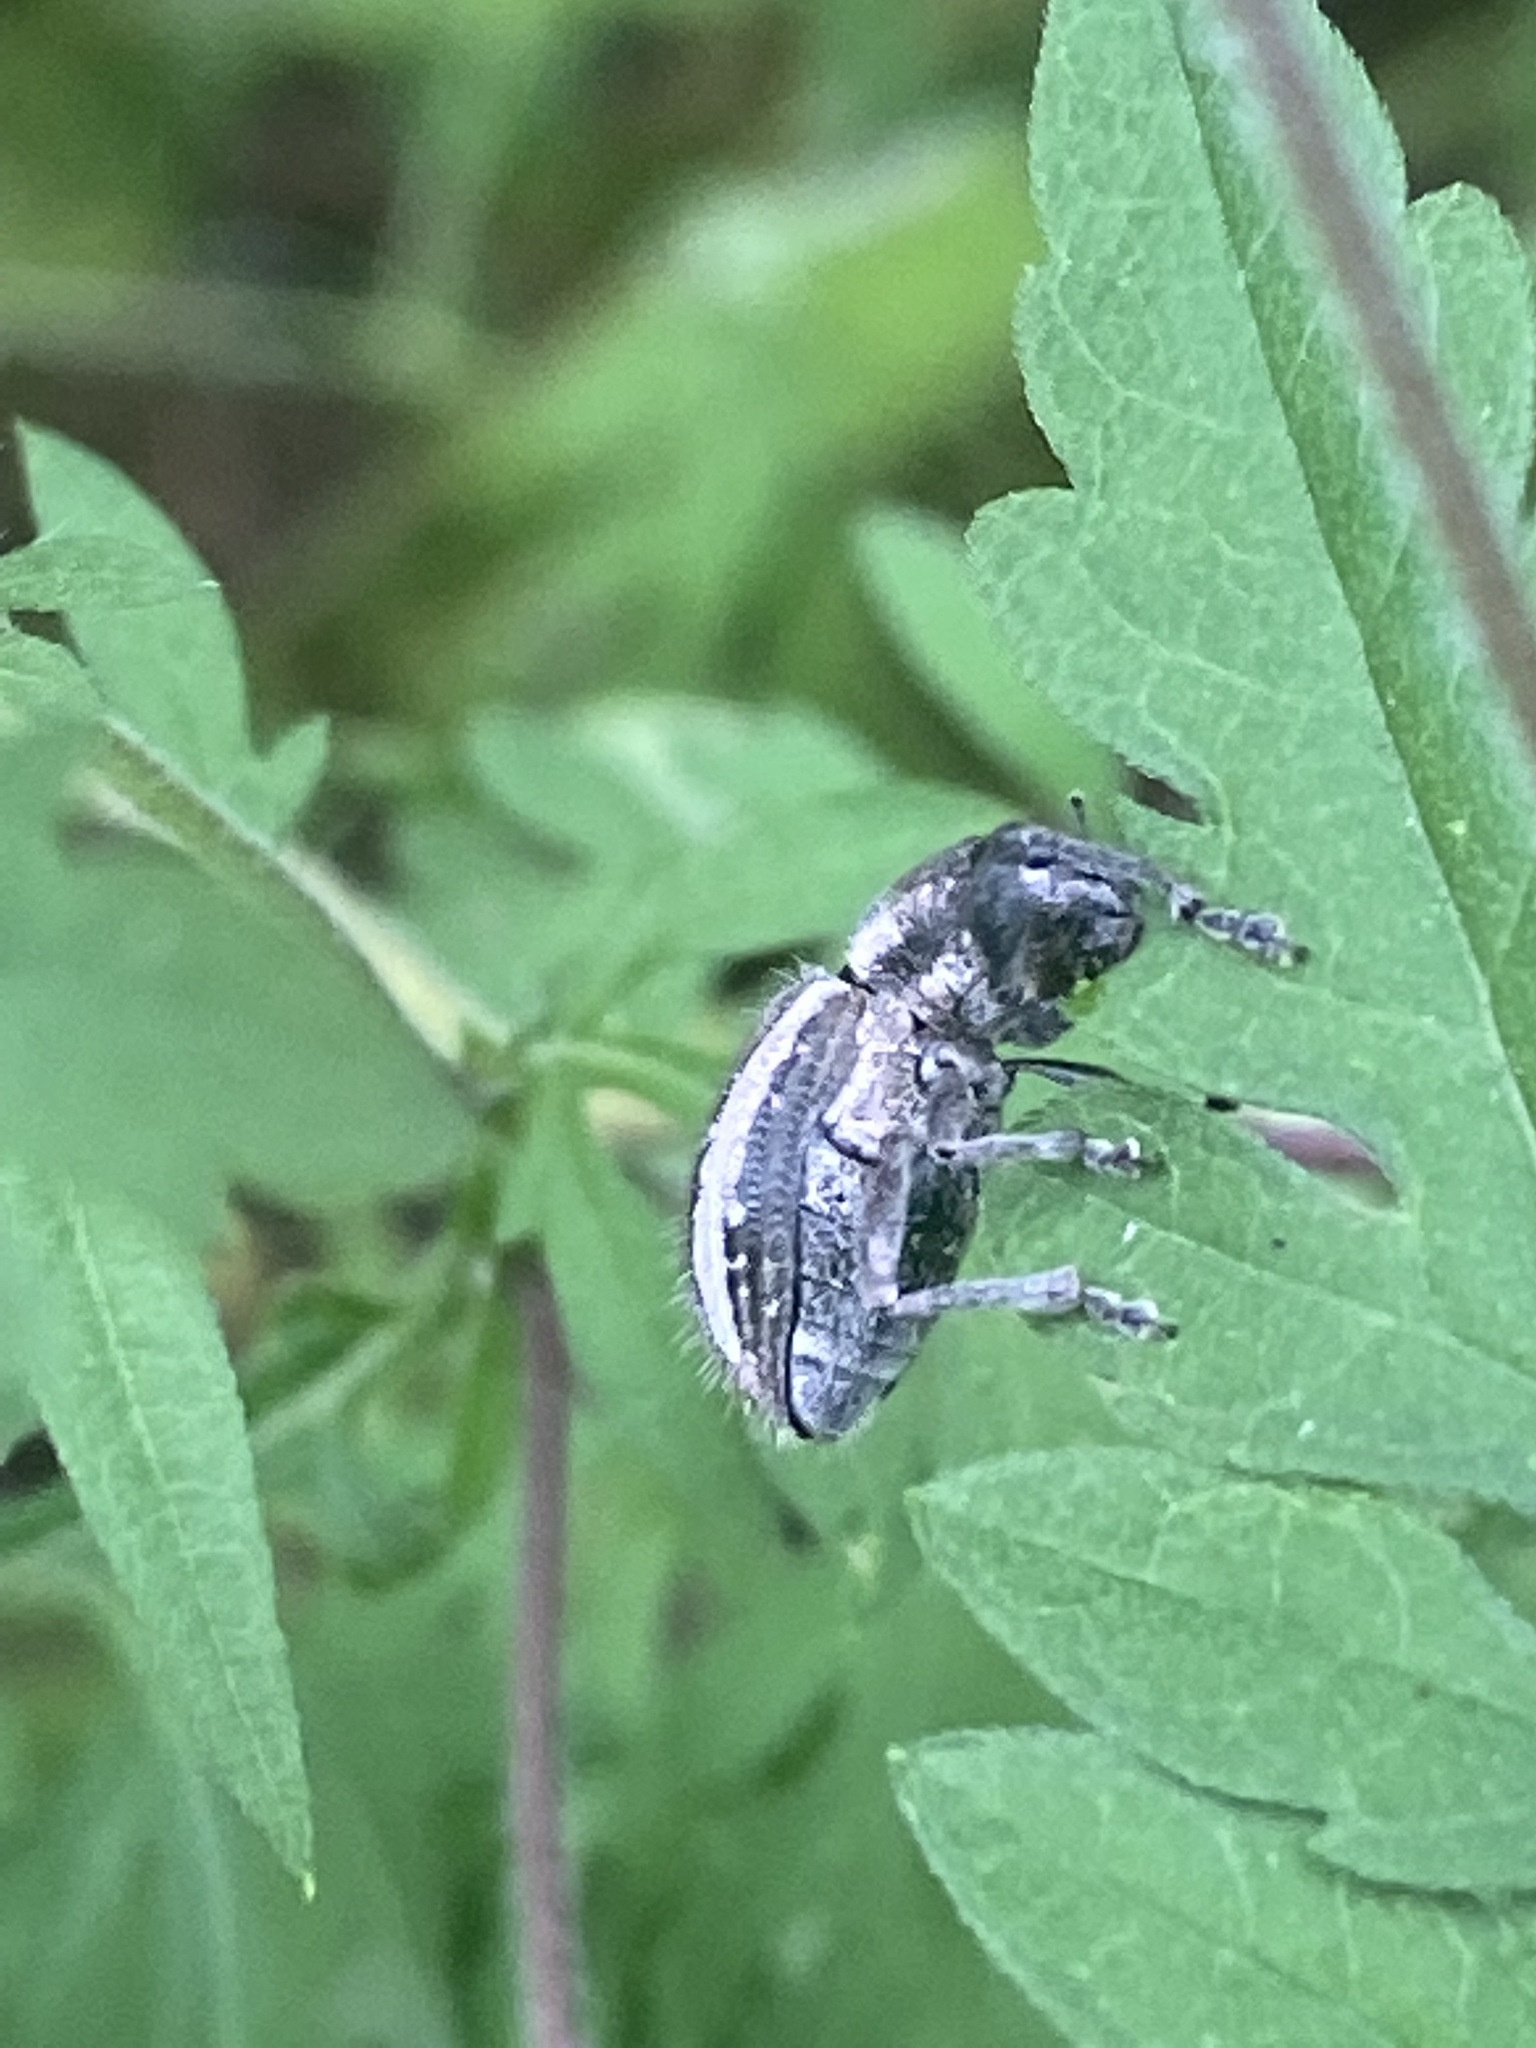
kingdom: Animalia
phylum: Arthropoda
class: Insecta
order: Coleoptera
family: Curculionidae
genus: Naupactus
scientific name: Naupactus leucoloma
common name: Whitefringed beetle
